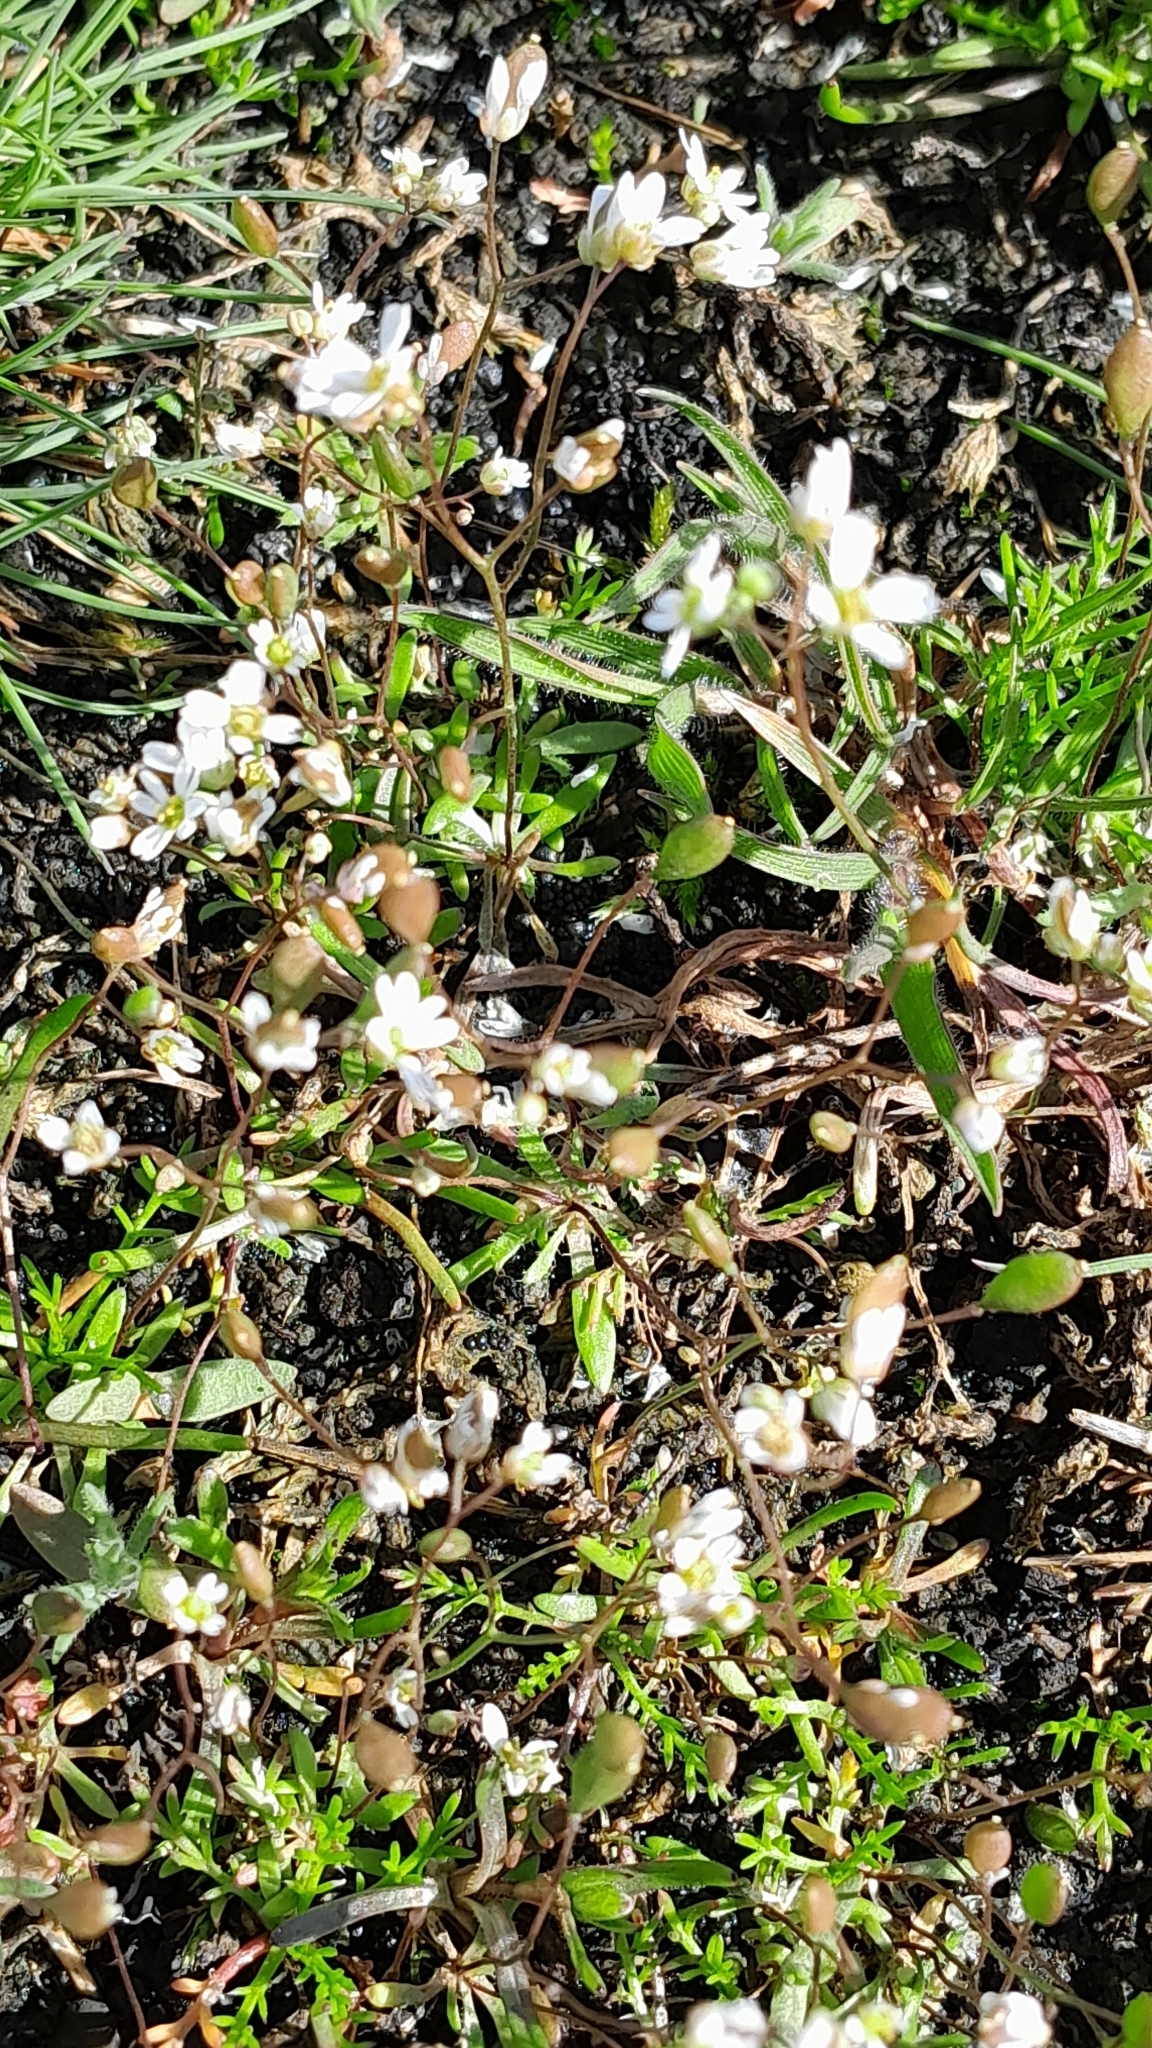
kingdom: Plantae
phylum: Tracheophyta
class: Magnoliopsida
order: Brassicales
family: Brassicaceae
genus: Draba
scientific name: Draba verna
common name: Spring draba
